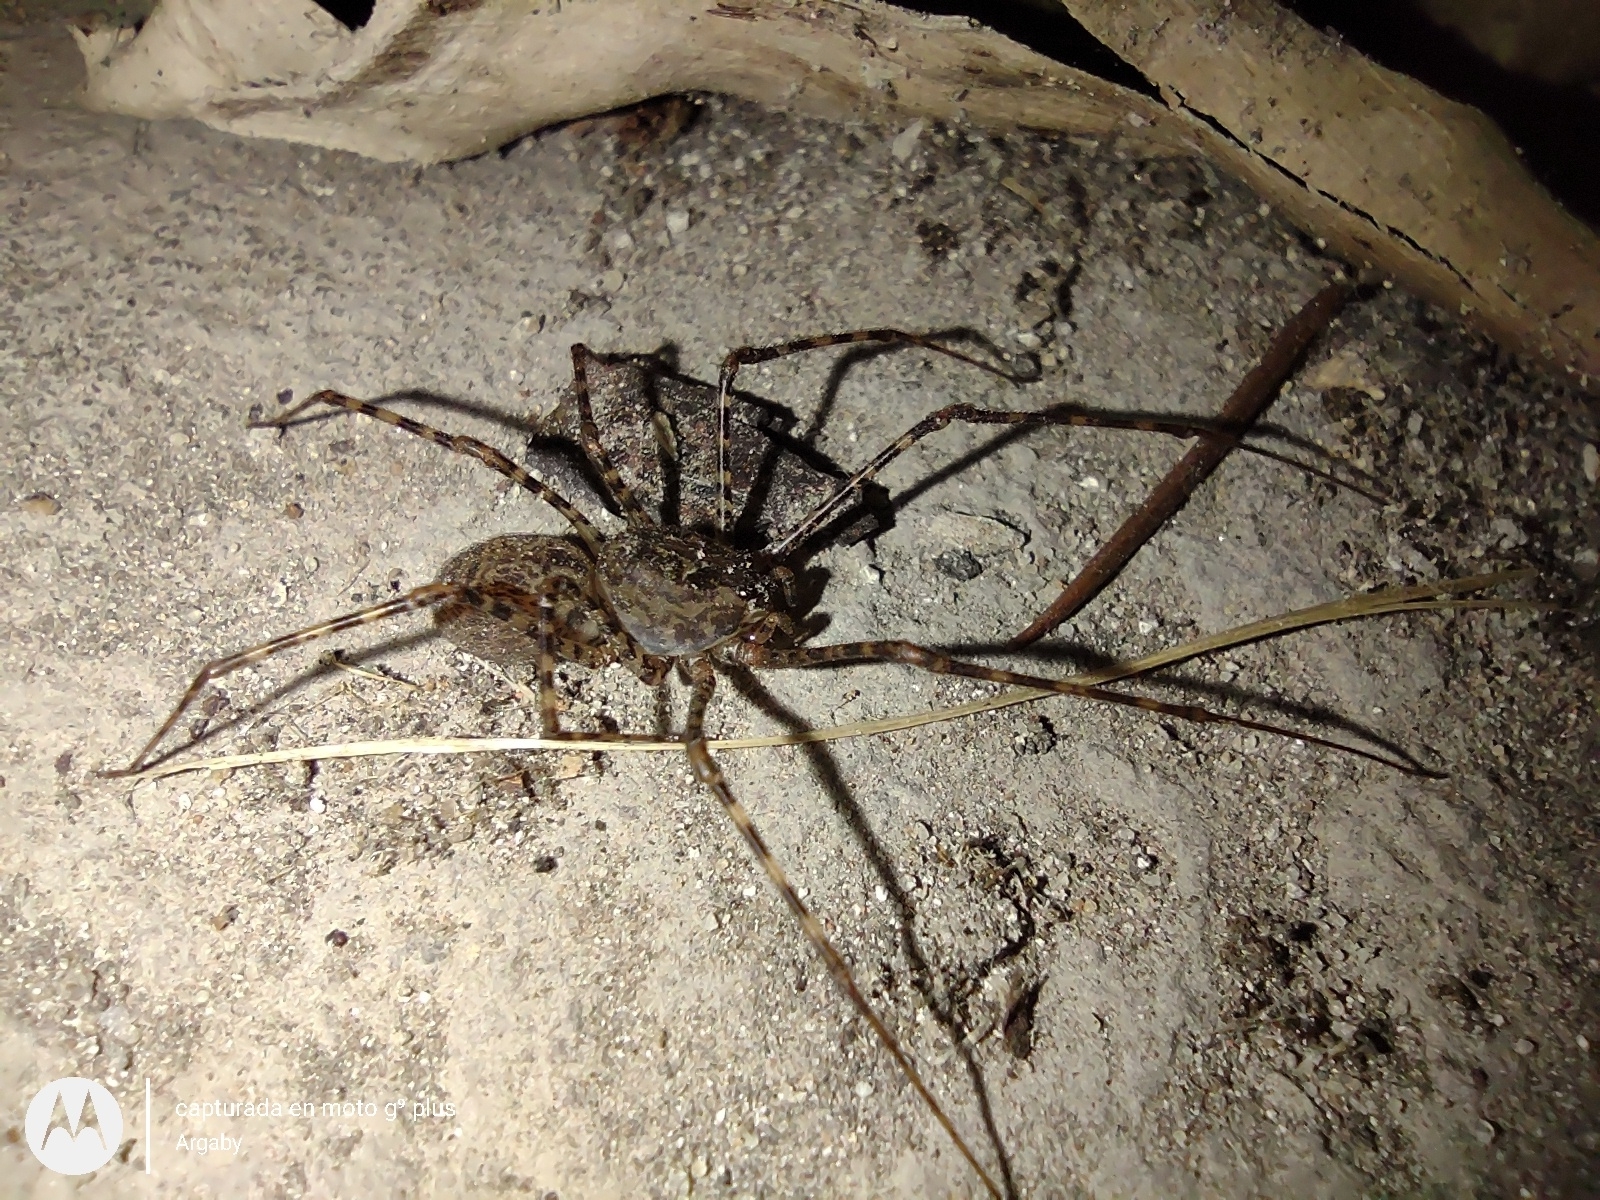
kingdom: Animalia
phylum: Arthropoda
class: Arachnida
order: Araneae
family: Scytodidae
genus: Scytodes
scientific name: Scytodes globula
